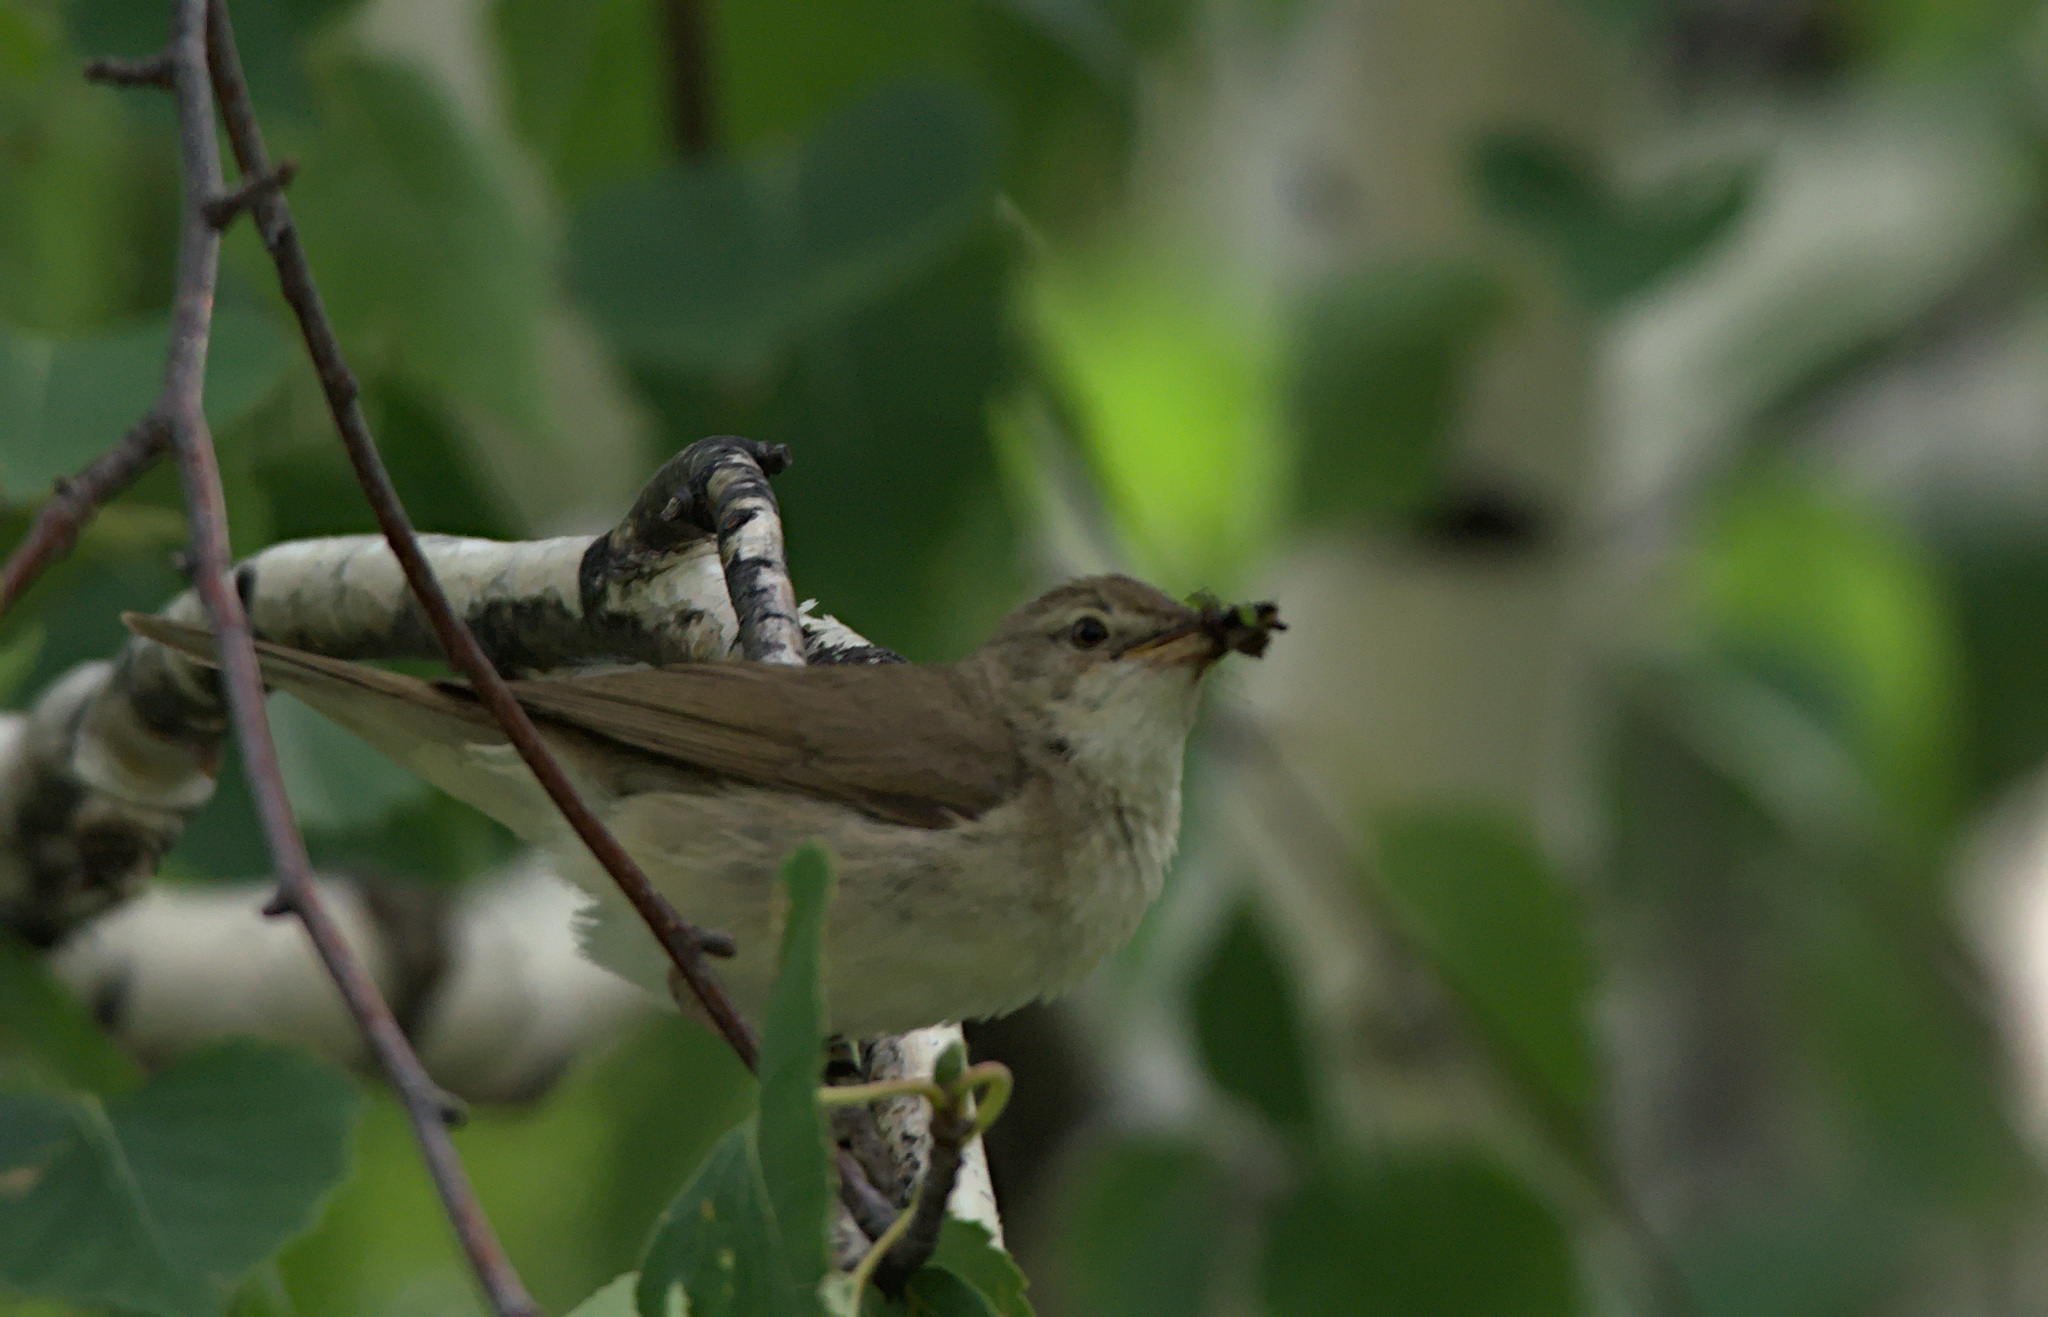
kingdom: Animalia
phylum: Chordata
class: Aves
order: Passeriformes
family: Acrocephalidae
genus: Acrocephalus
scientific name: Acrocephalus dumetorum
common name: Blyth's reed warbler
